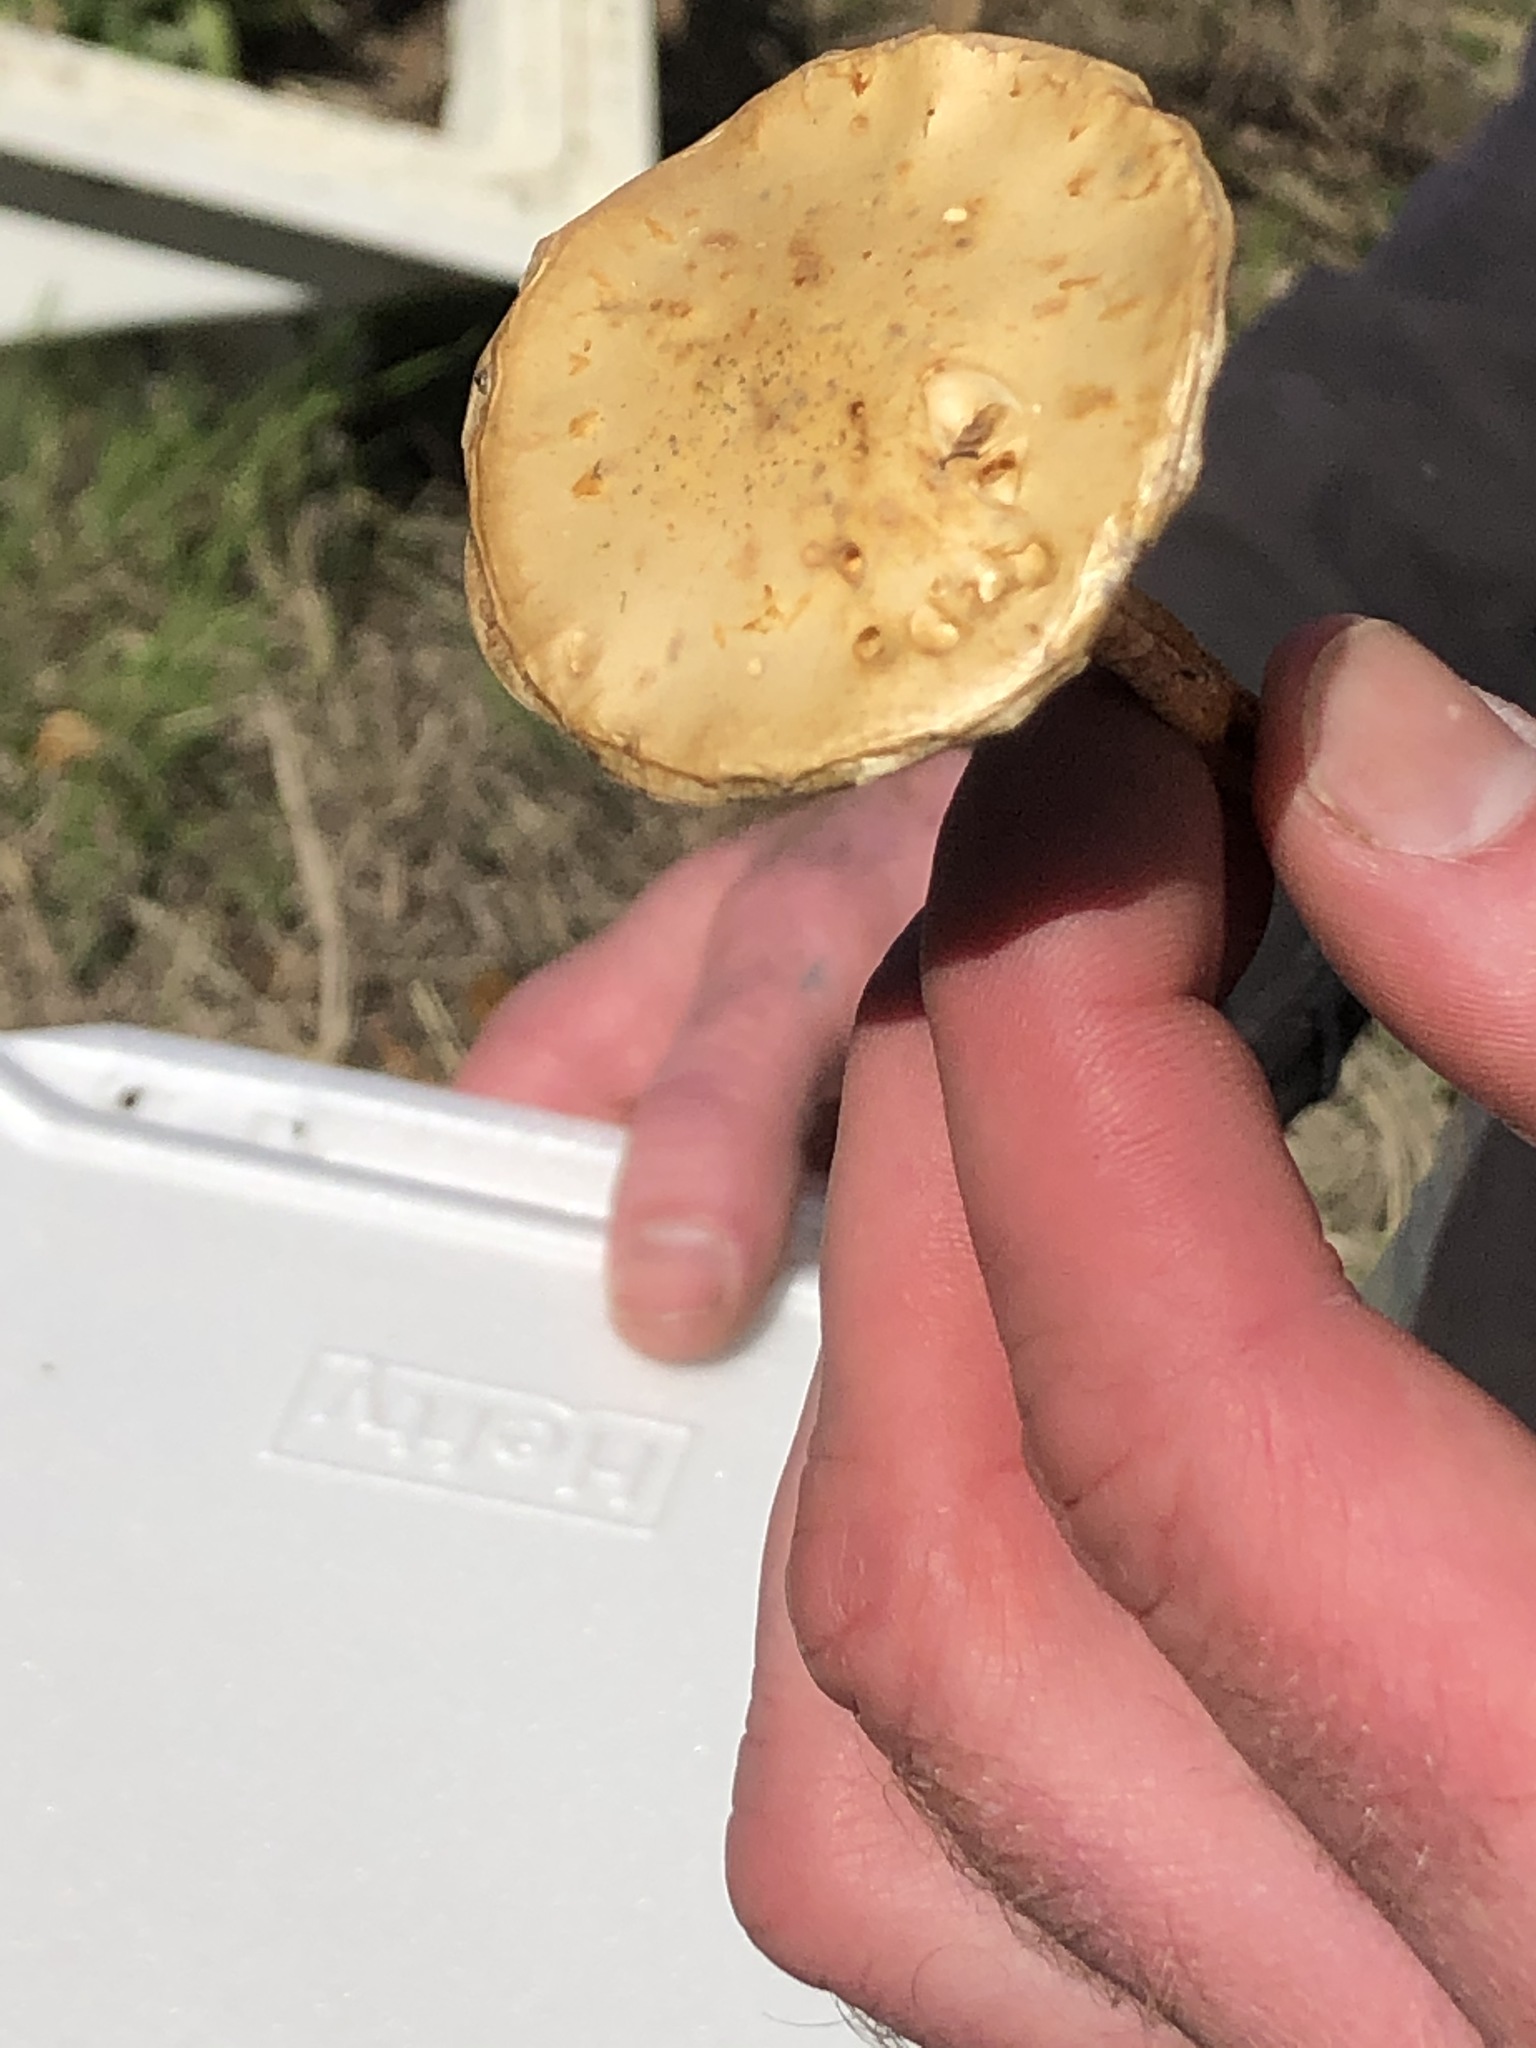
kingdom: Fungi
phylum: Basidiomycota
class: Agaricomycetes
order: Agaricales
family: Strophariaceae
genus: Leratiomyces
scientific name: Leratiomyces percevalii
